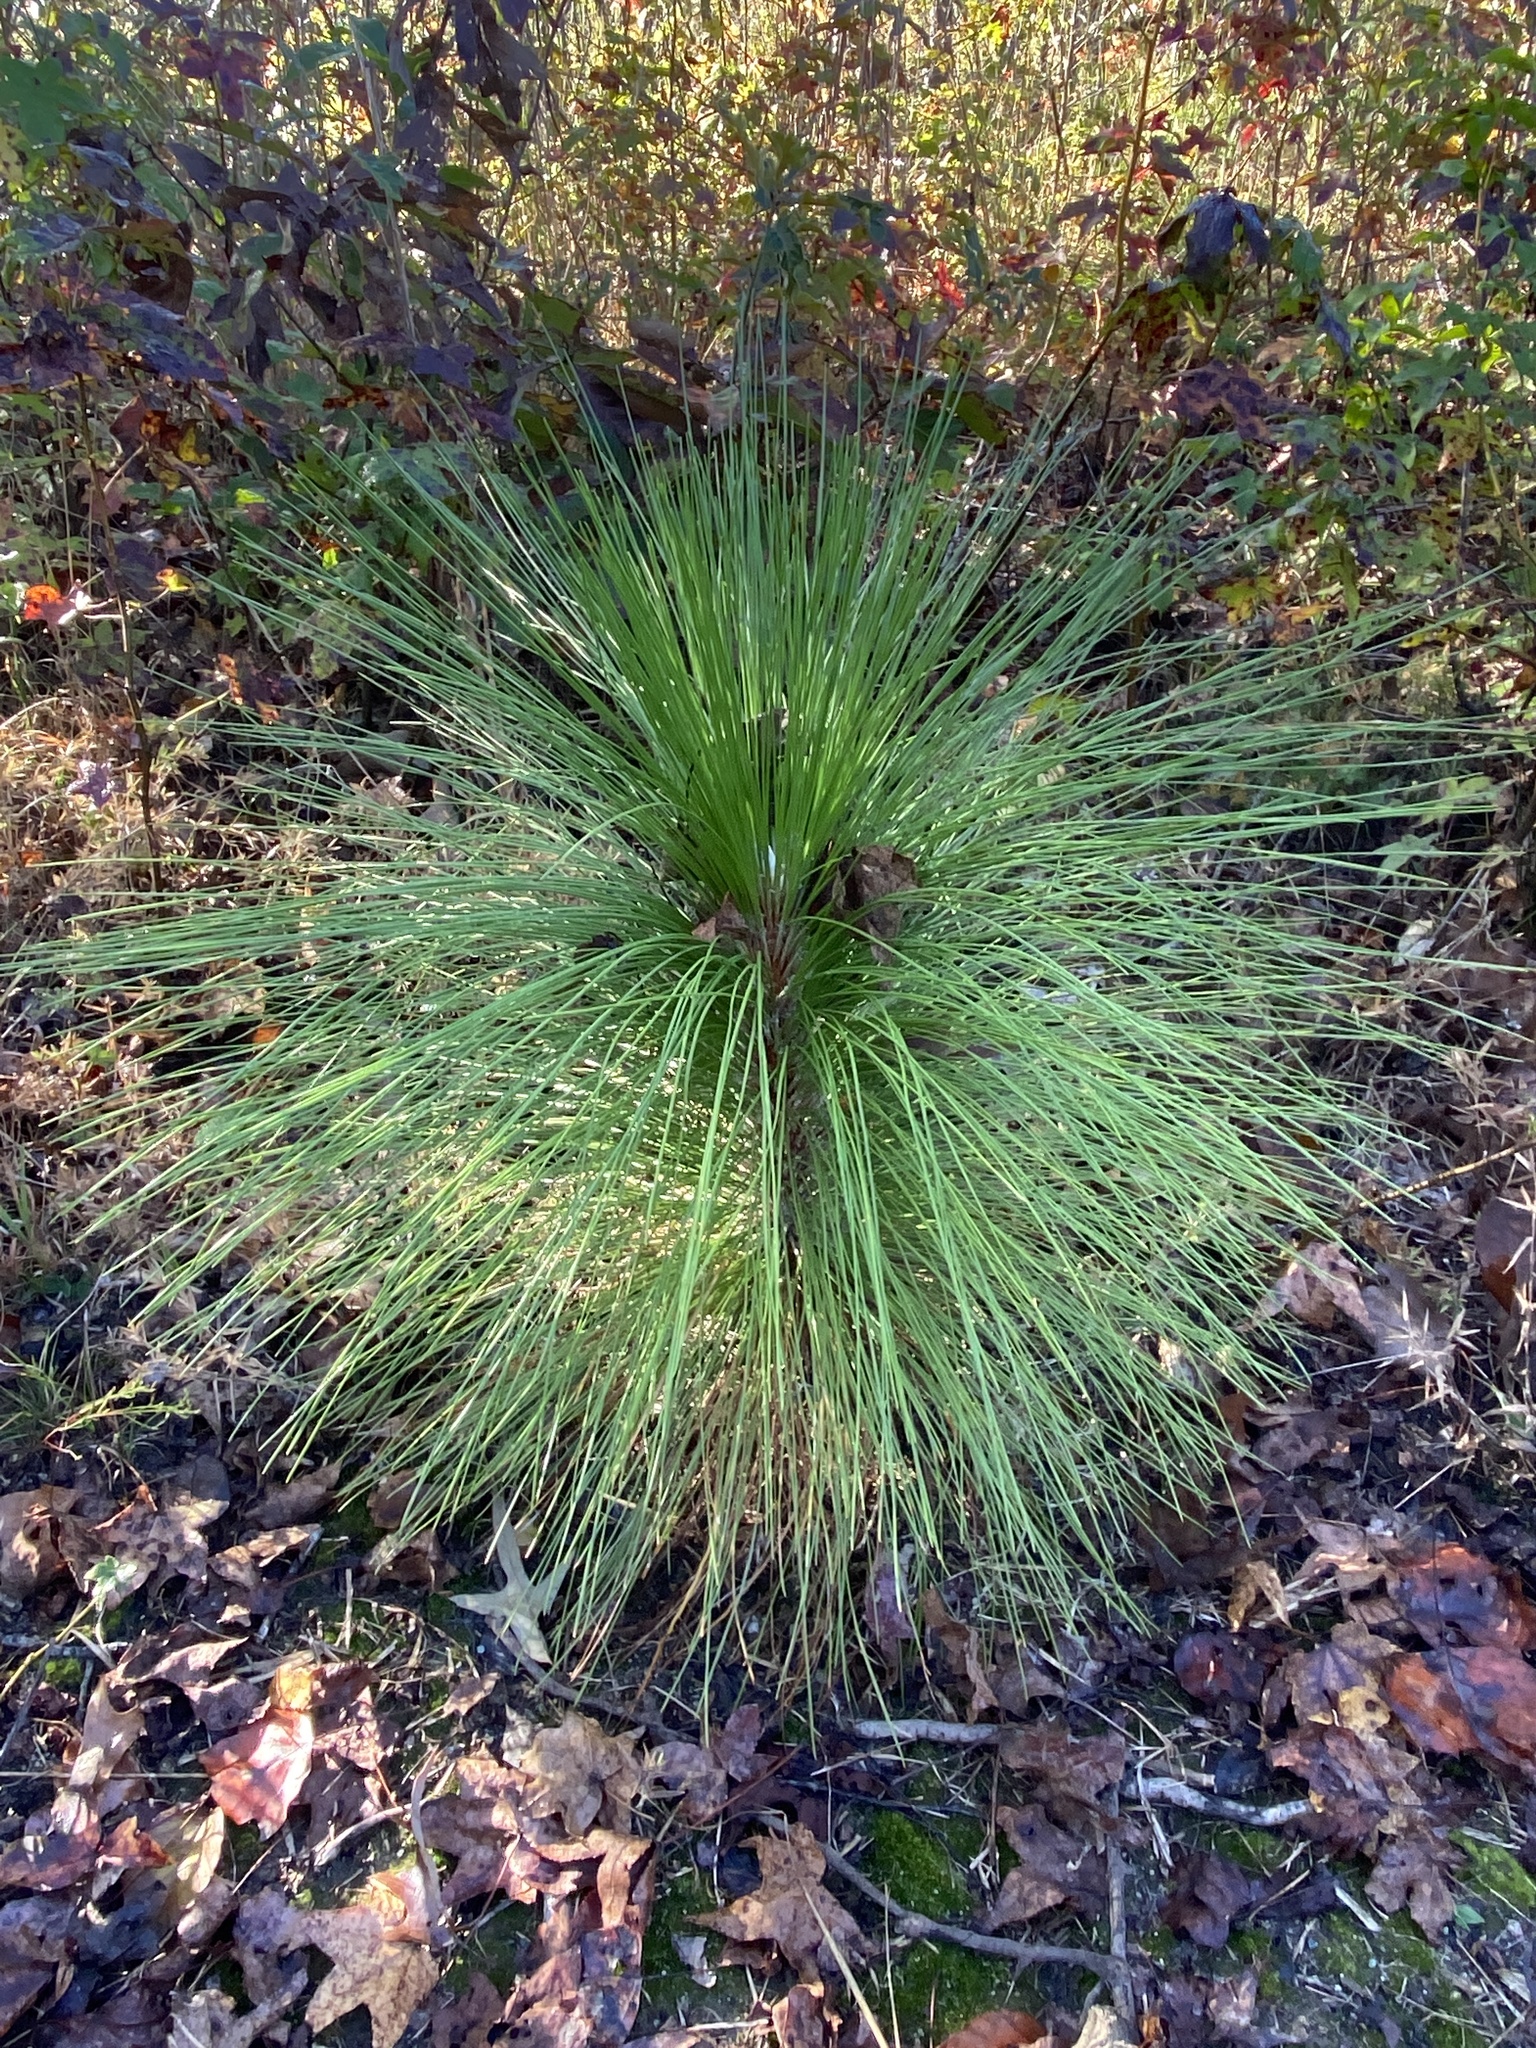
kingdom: Plantae
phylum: Tracheophyta
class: Pinopsida
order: Pinales
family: Pinaceae
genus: Pinus
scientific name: Pinus palustris
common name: Longleaf pine
